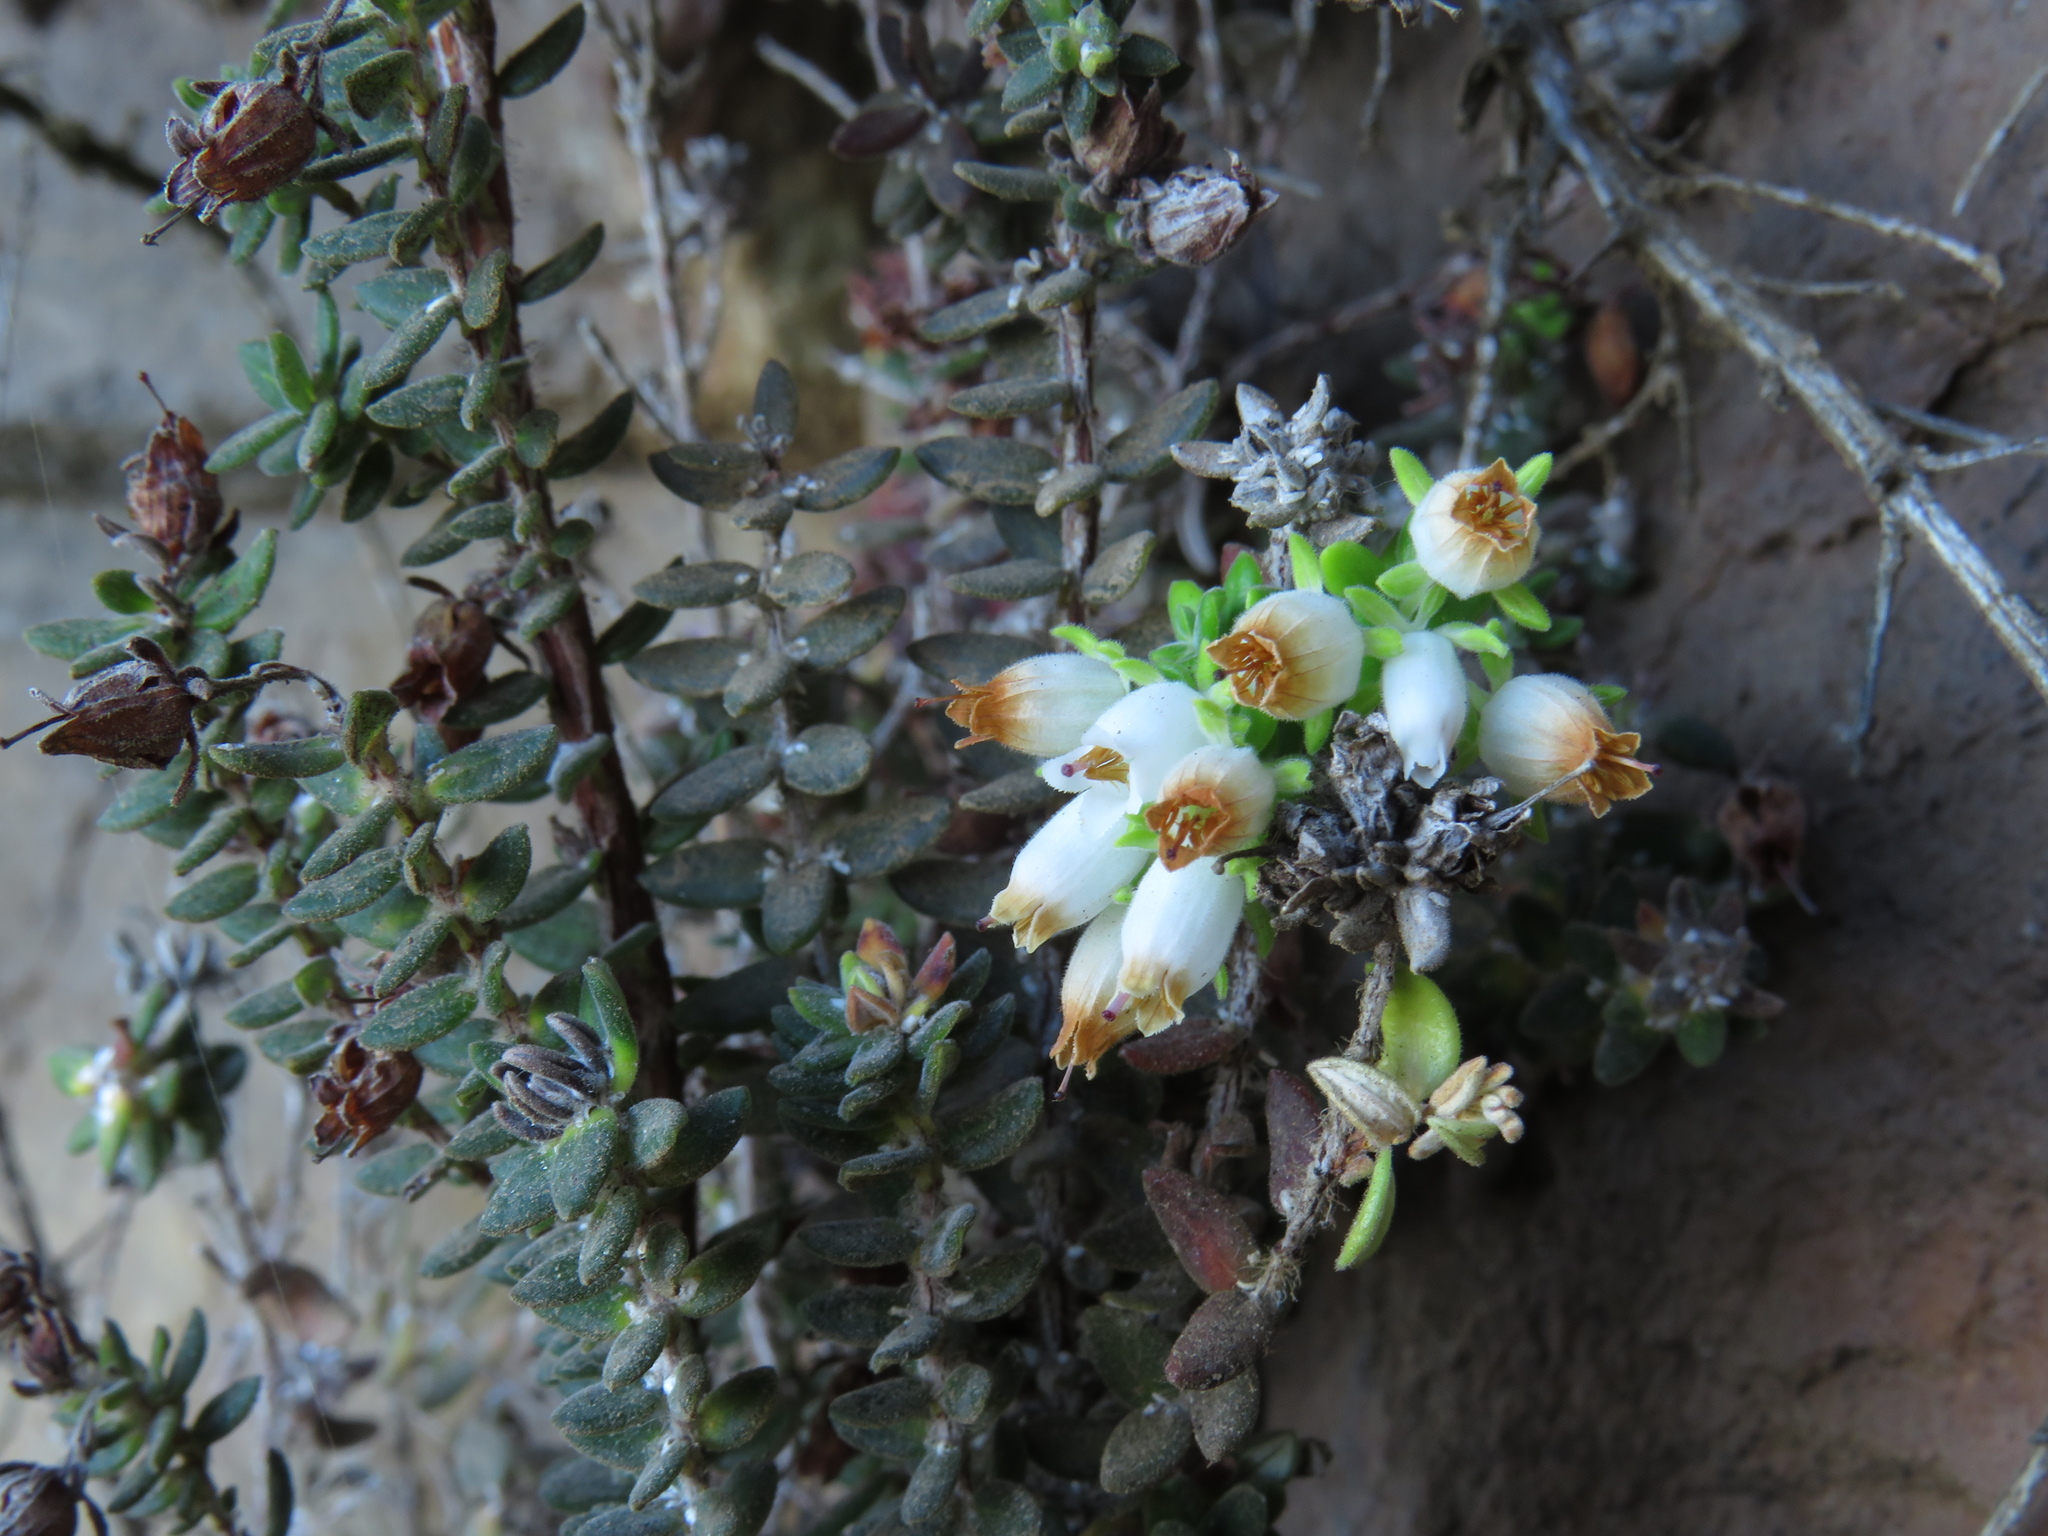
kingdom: Plantae
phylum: Tracheophyta
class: Magnoliopsida
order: Ericales
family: Ericaceae
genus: Erica
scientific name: Erica marifolia
